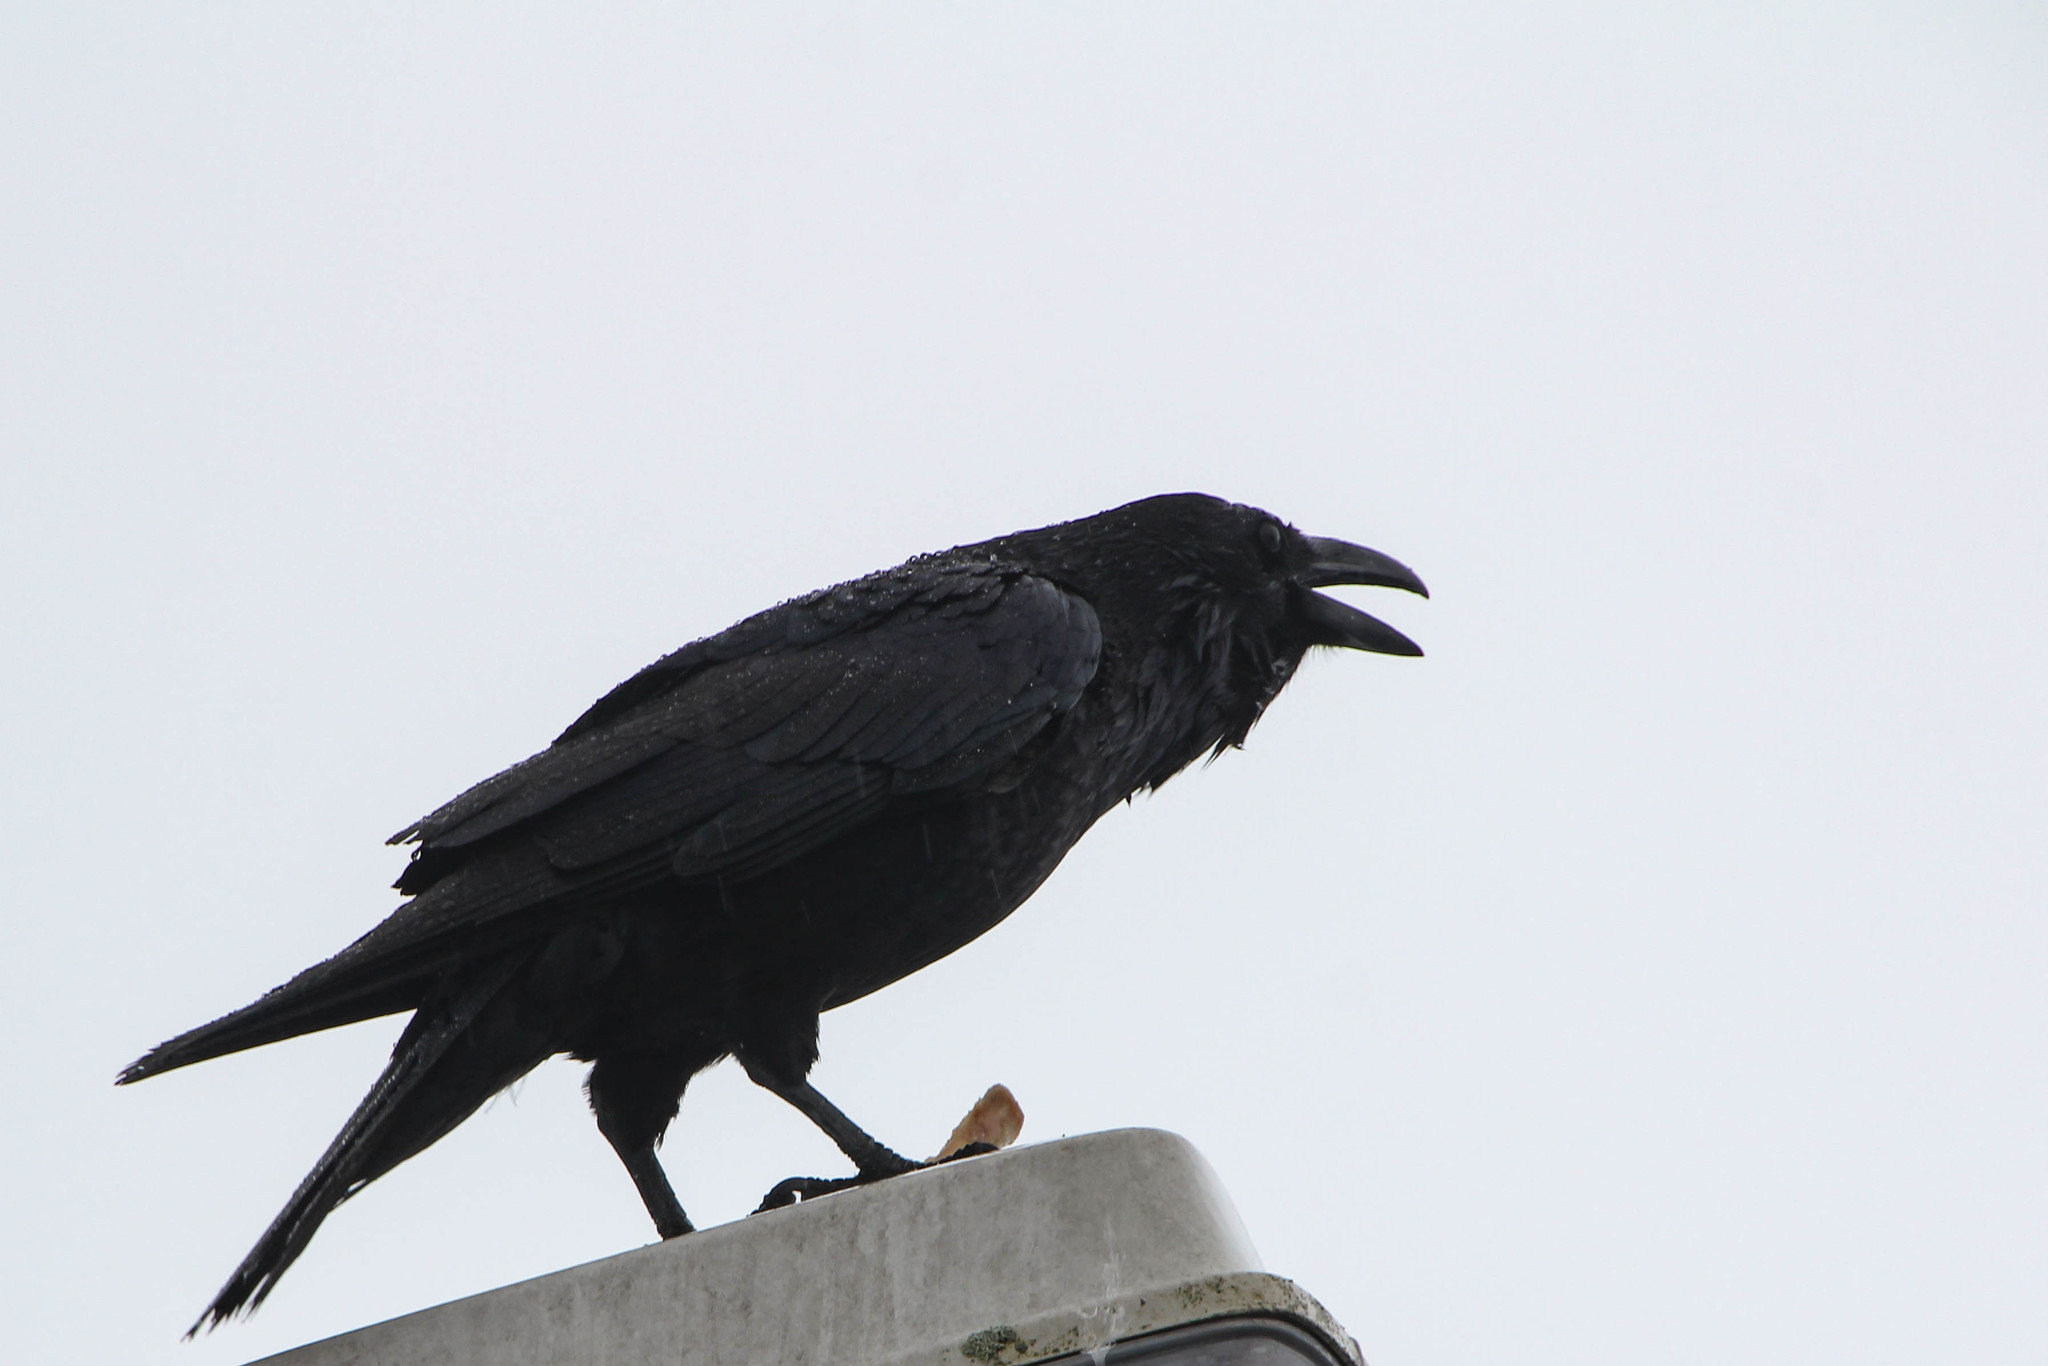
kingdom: Animalia
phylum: Chordata
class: Aves
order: Passeriformes
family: Corvidae
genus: Corvus
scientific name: Corvus corax
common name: Common raven
